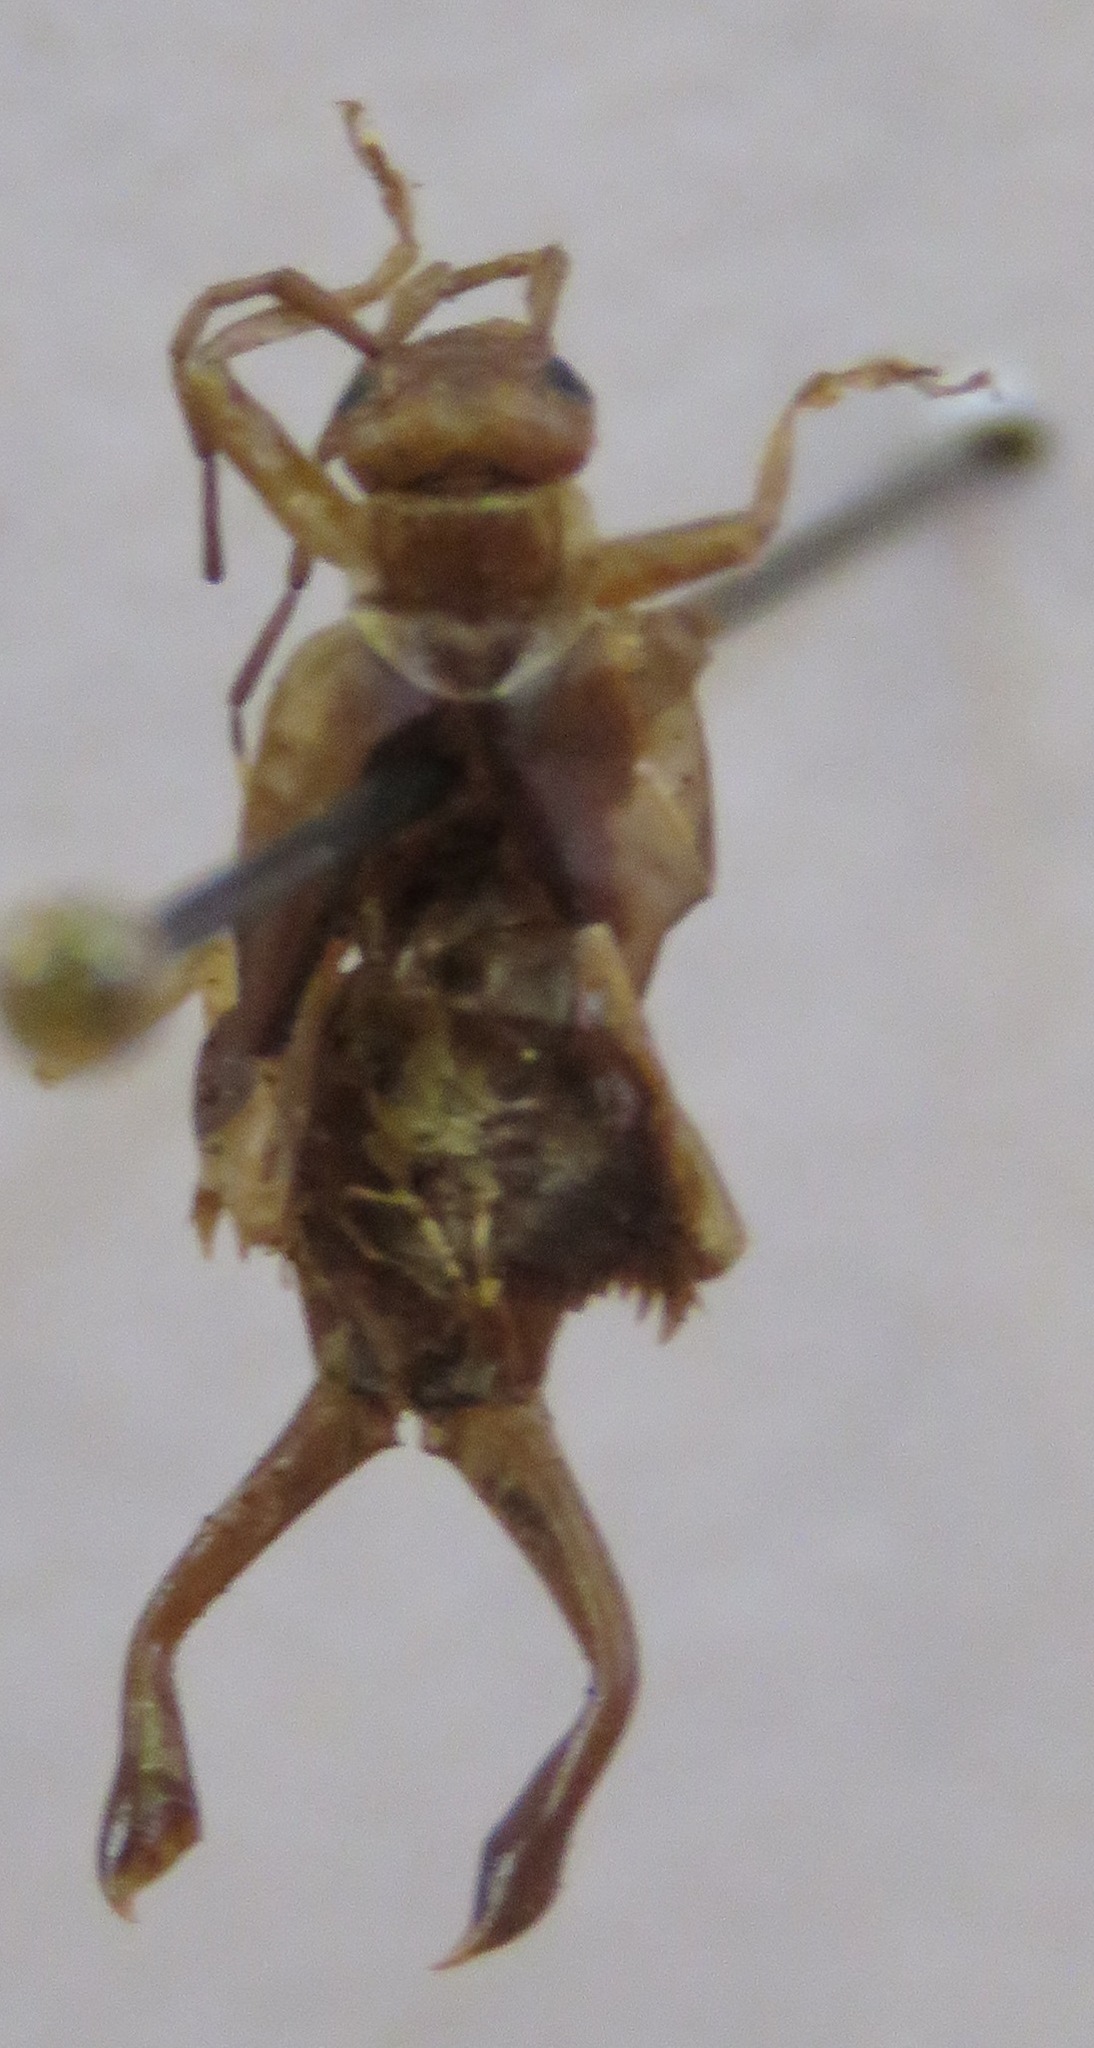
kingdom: Animalia
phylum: Arthropoda
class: Insecta
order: Dermaptera
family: Forficulidae
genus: Ancistrogaster
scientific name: Ancistrogaster luctuosus
